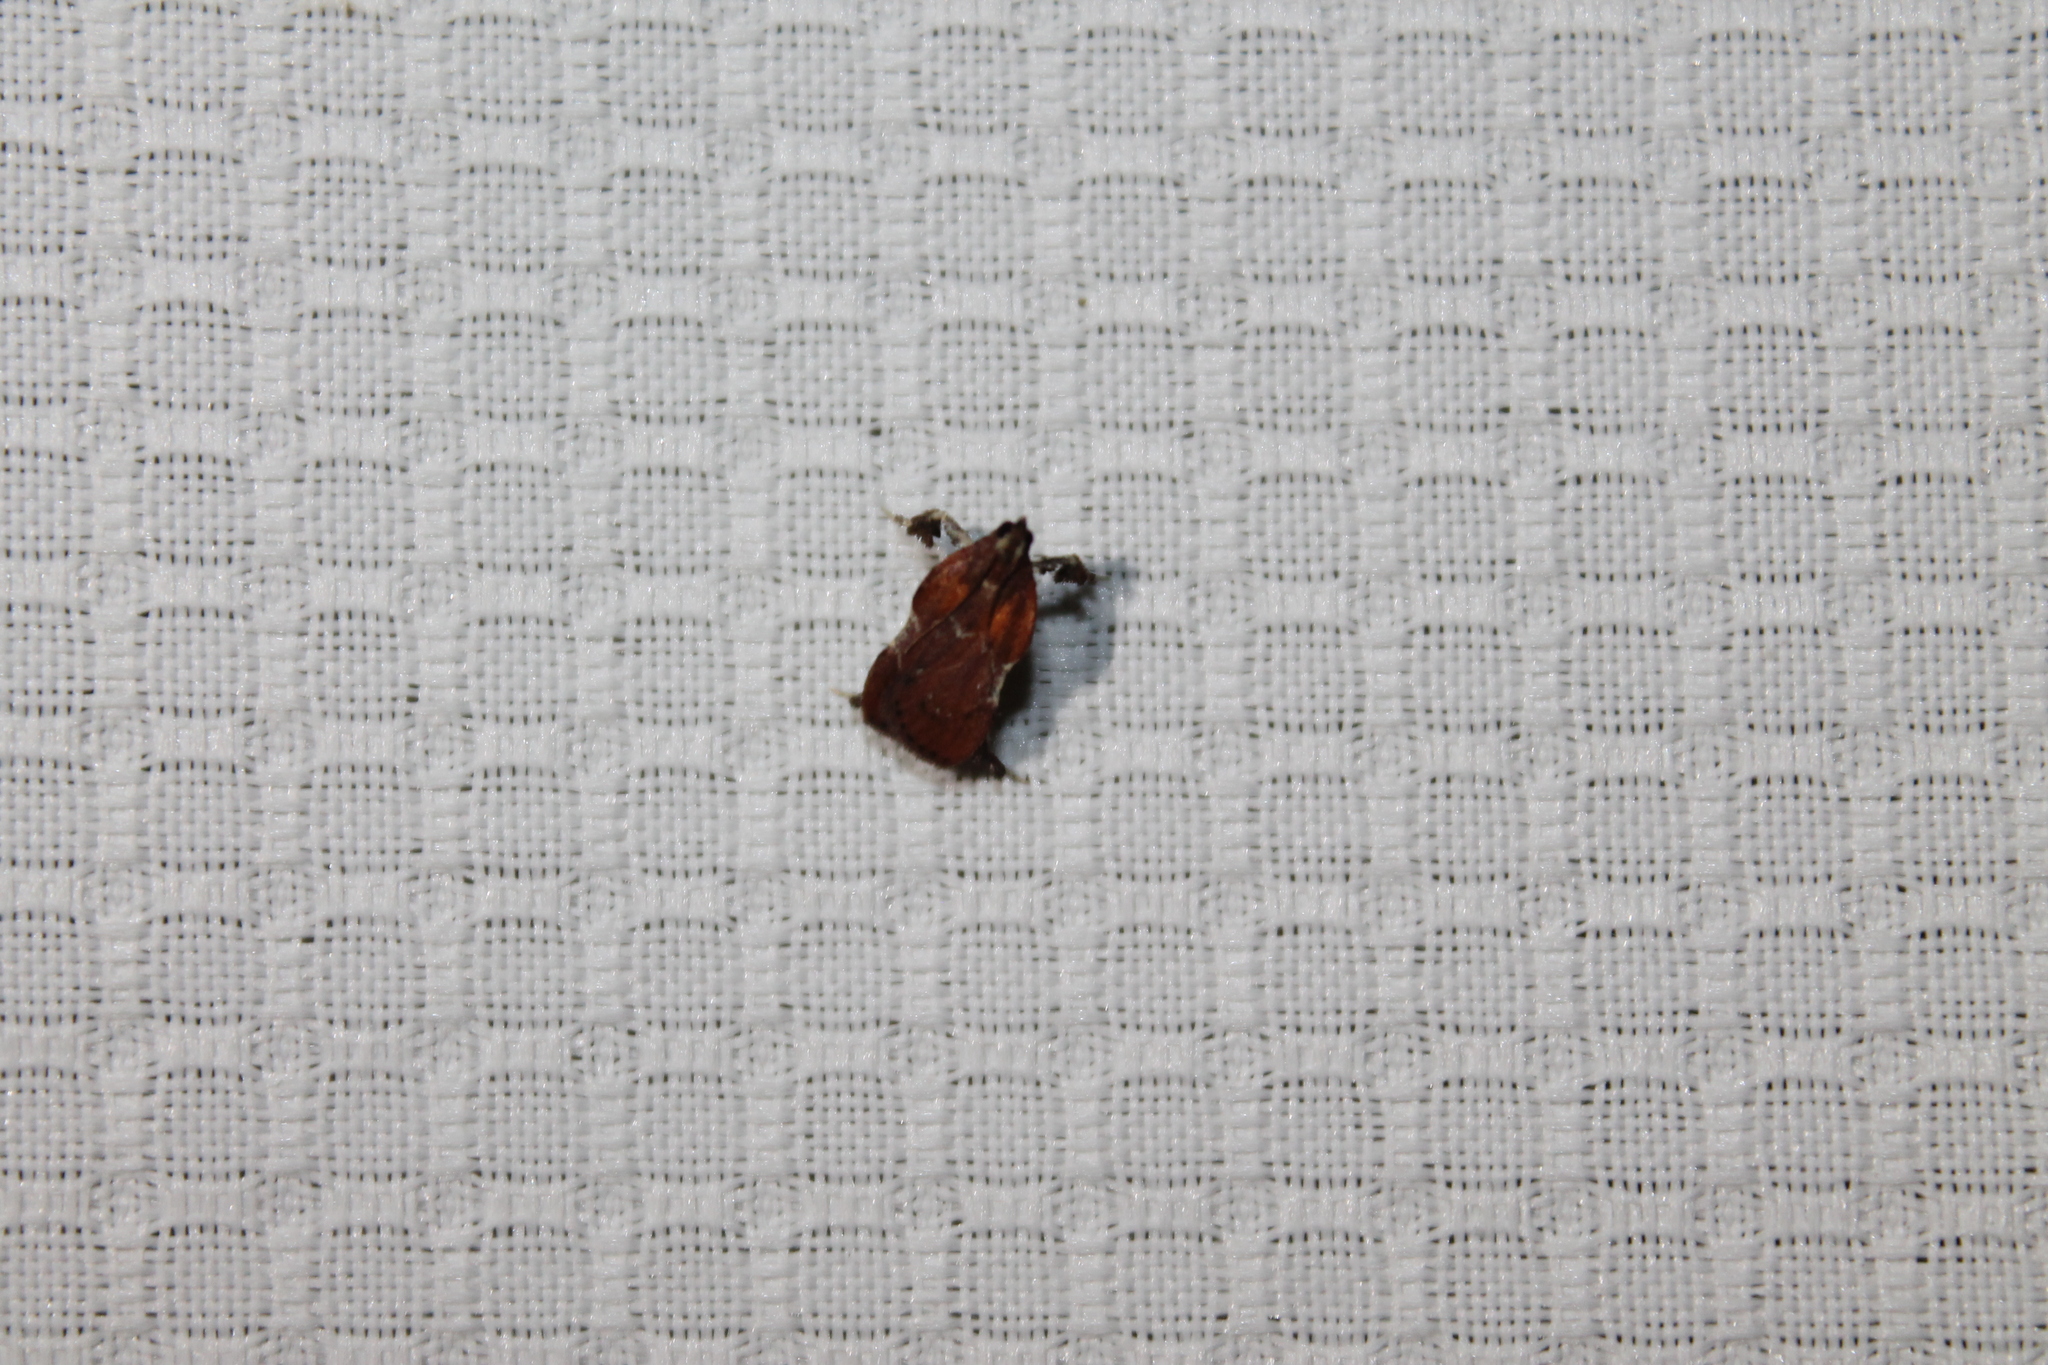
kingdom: Animalia
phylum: Arthropoda
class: Insecta
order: Lepidoptera
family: Pyralidae
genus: Galasa
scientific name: Galasa nigrinodis
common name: Boxwood leaftier moth
